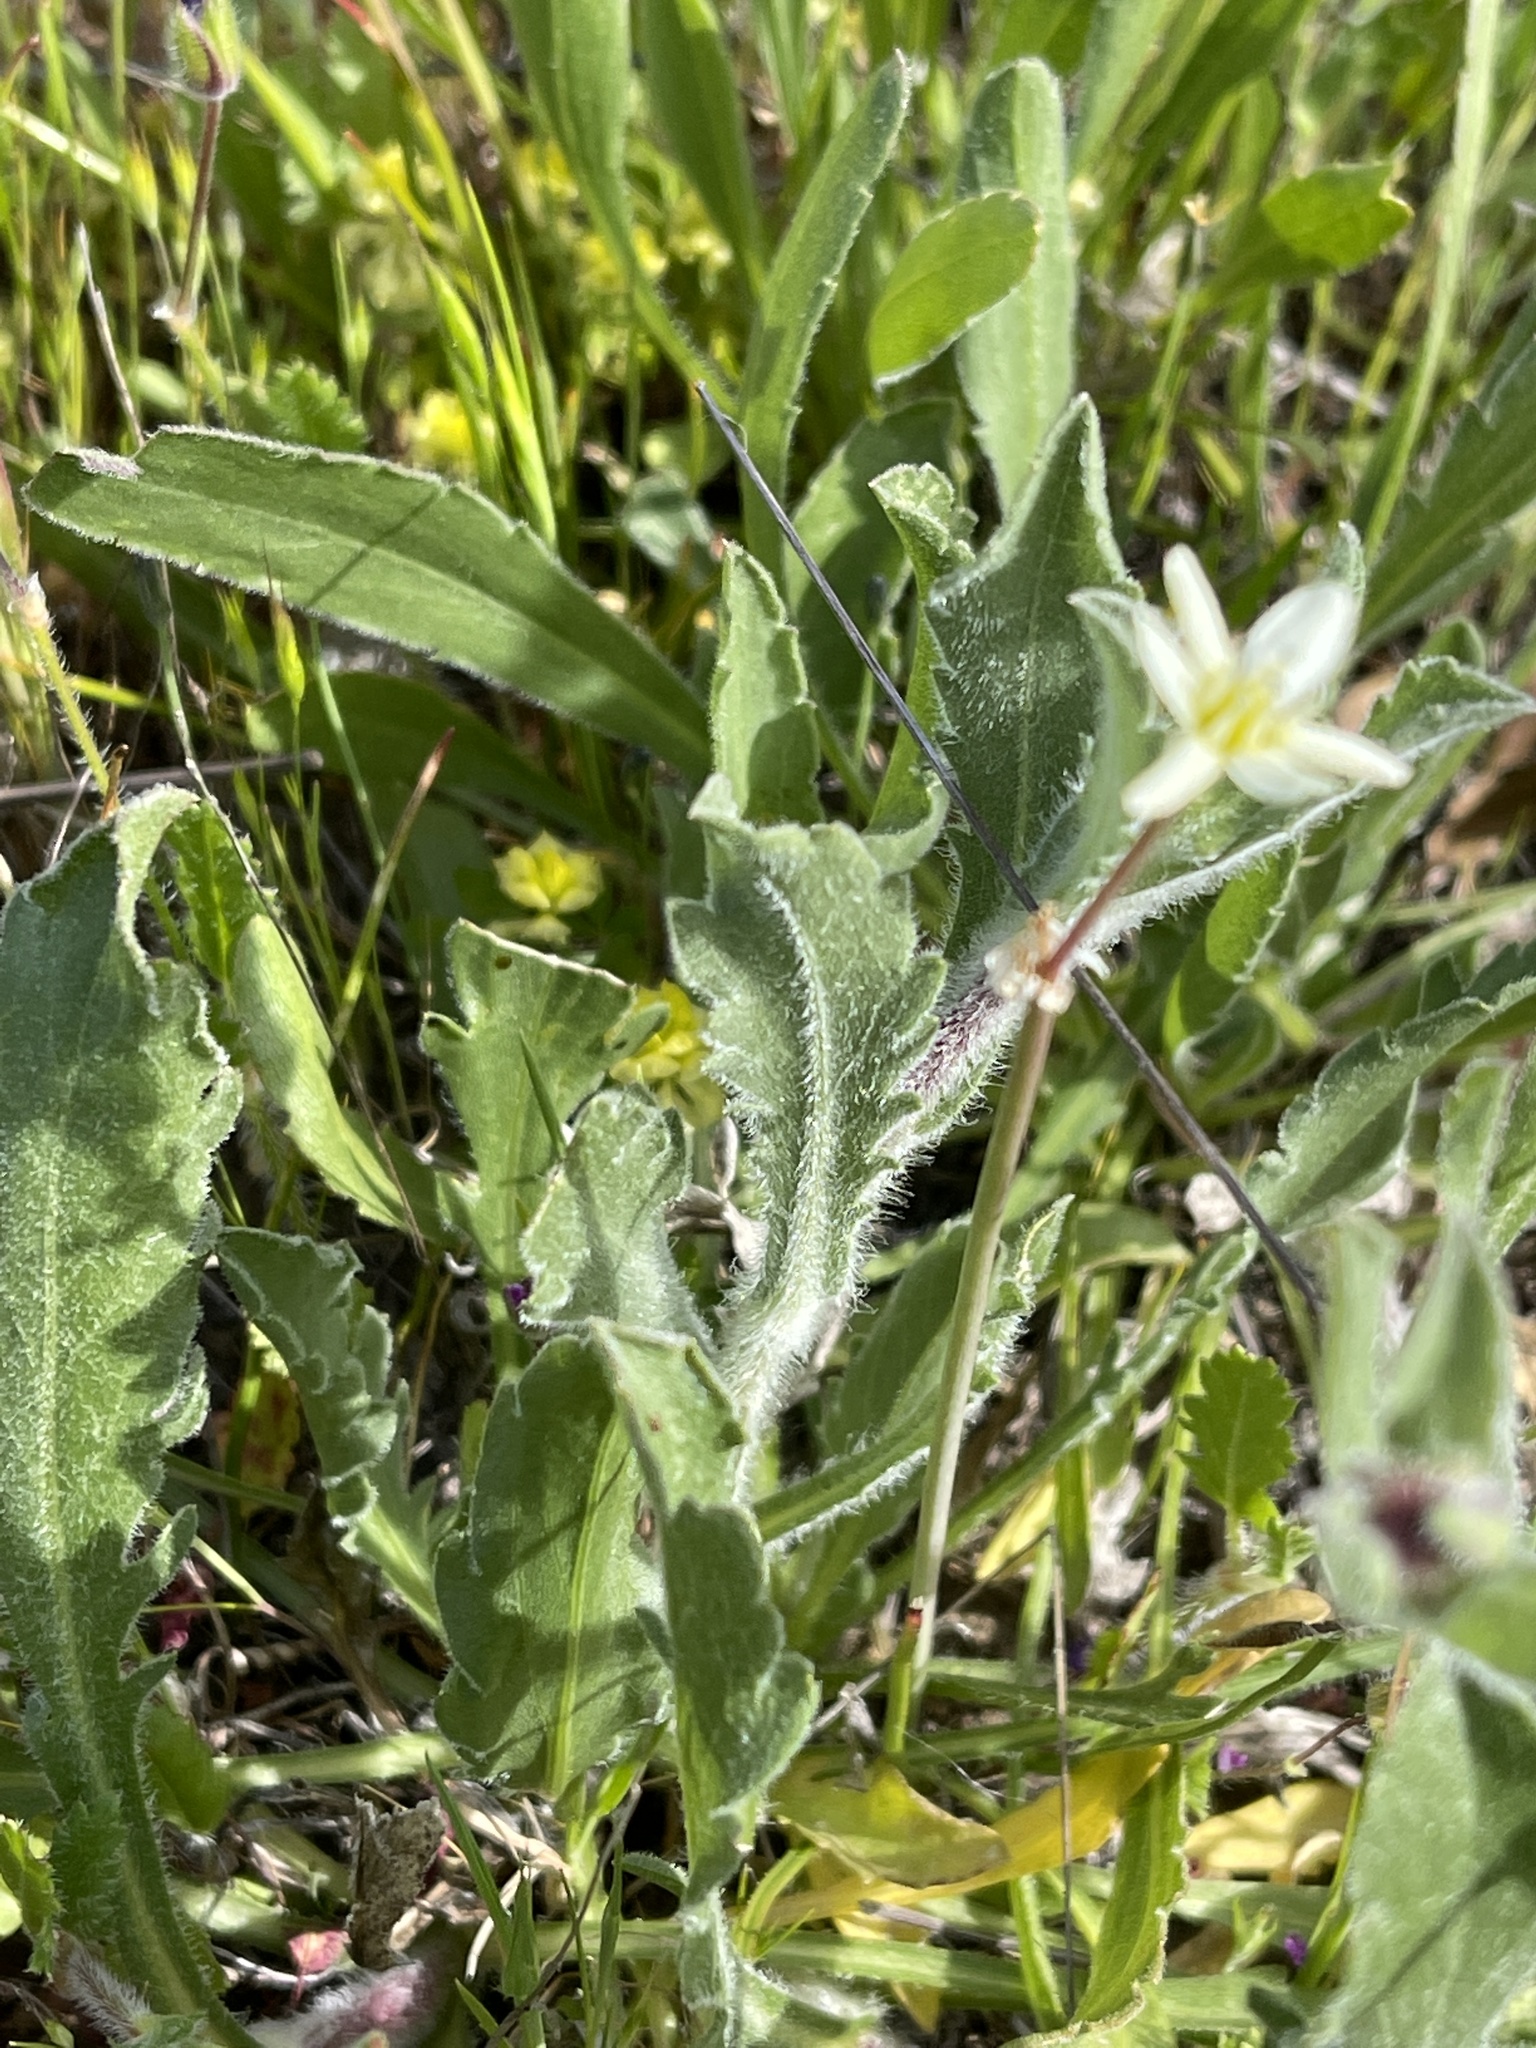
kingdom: Plantae
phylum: Tracheophyta
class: Liliopsida
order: Asparagales
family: Asparagaceae
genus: Muilla
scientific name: Muilla maritima
